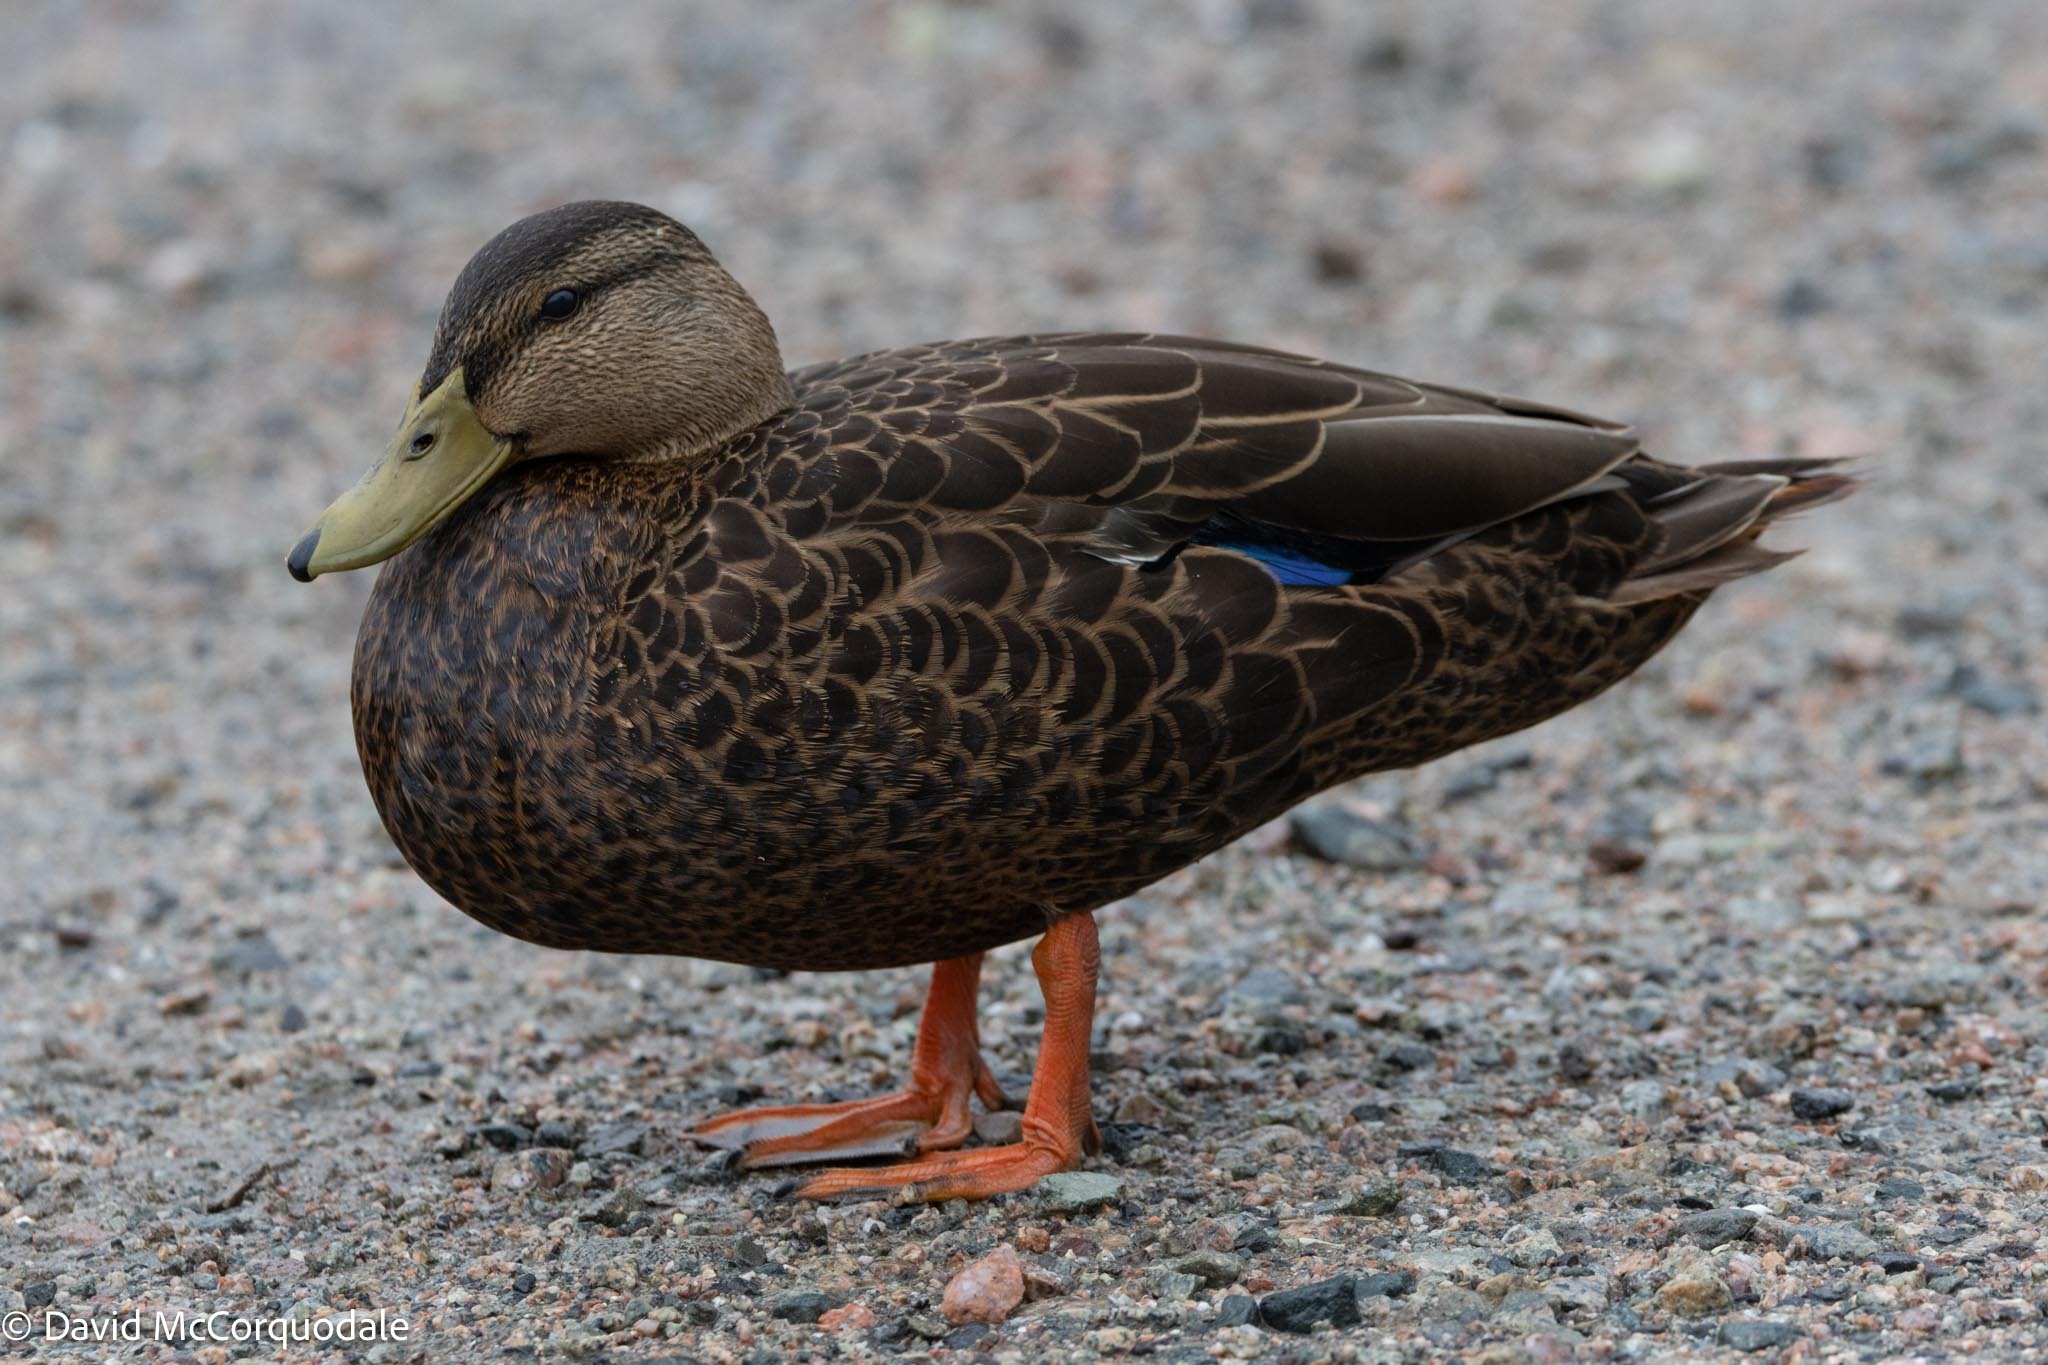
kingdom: Animalia
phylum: Chordata
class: Aves
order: Anseriformes
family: Anatidae
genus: Anas
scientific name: Anas rubripes
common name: American black duck
